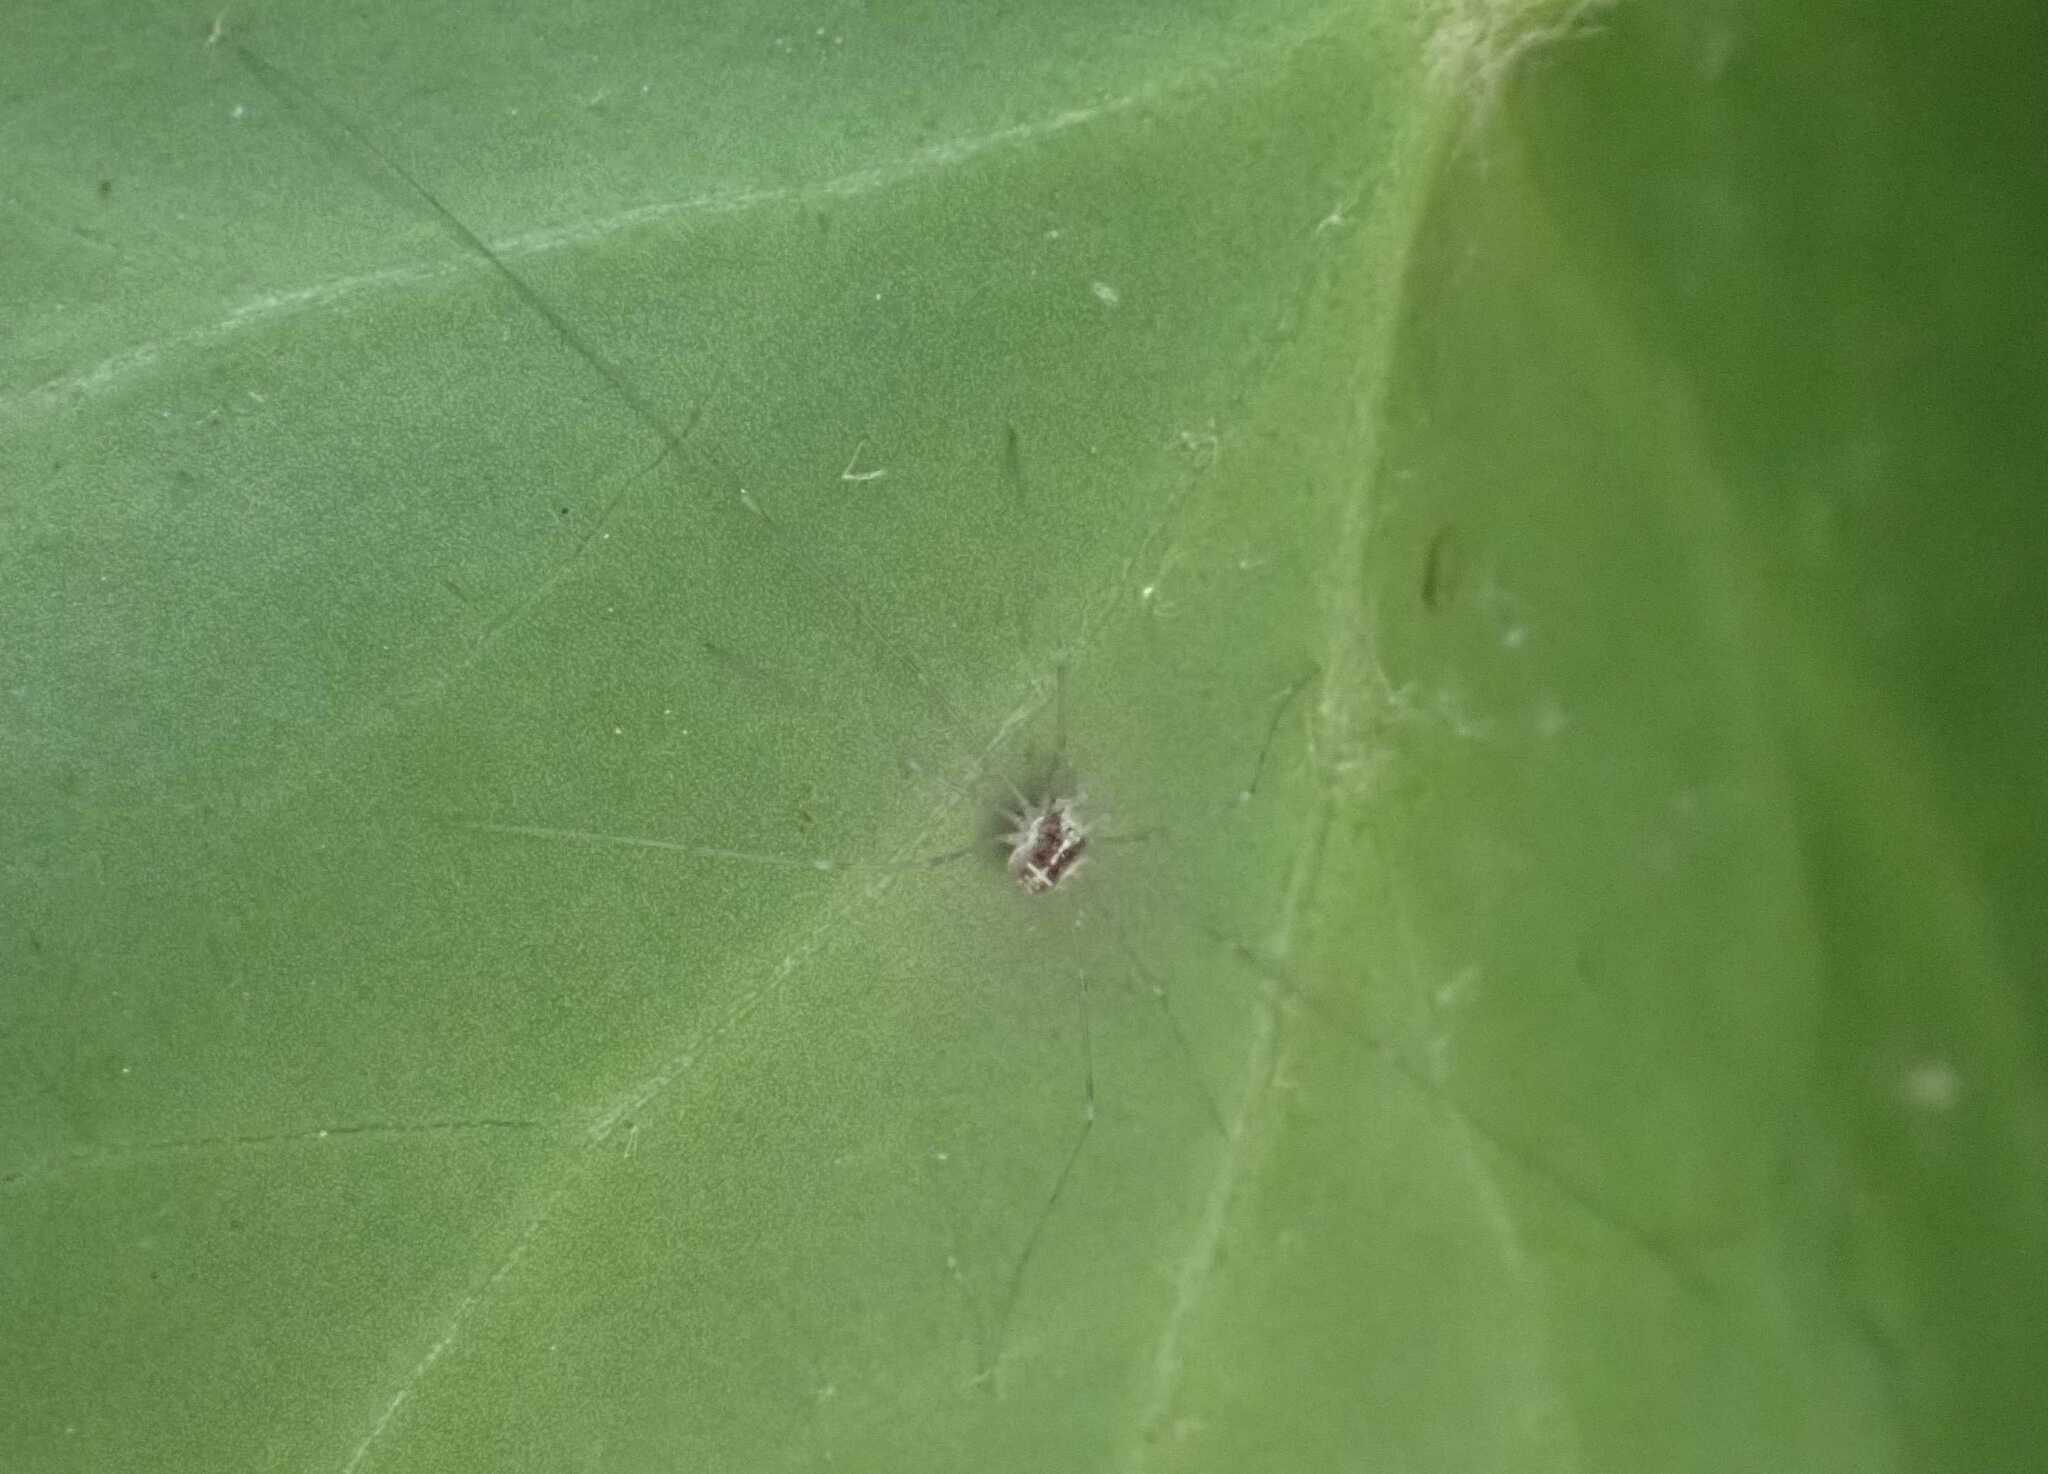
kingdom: Animalia
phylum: Arthropoda
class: Arachnida
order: Opiliones
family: Phalangiidae
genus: Dicranopalpus
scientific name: Dicranopalpus ramosus
